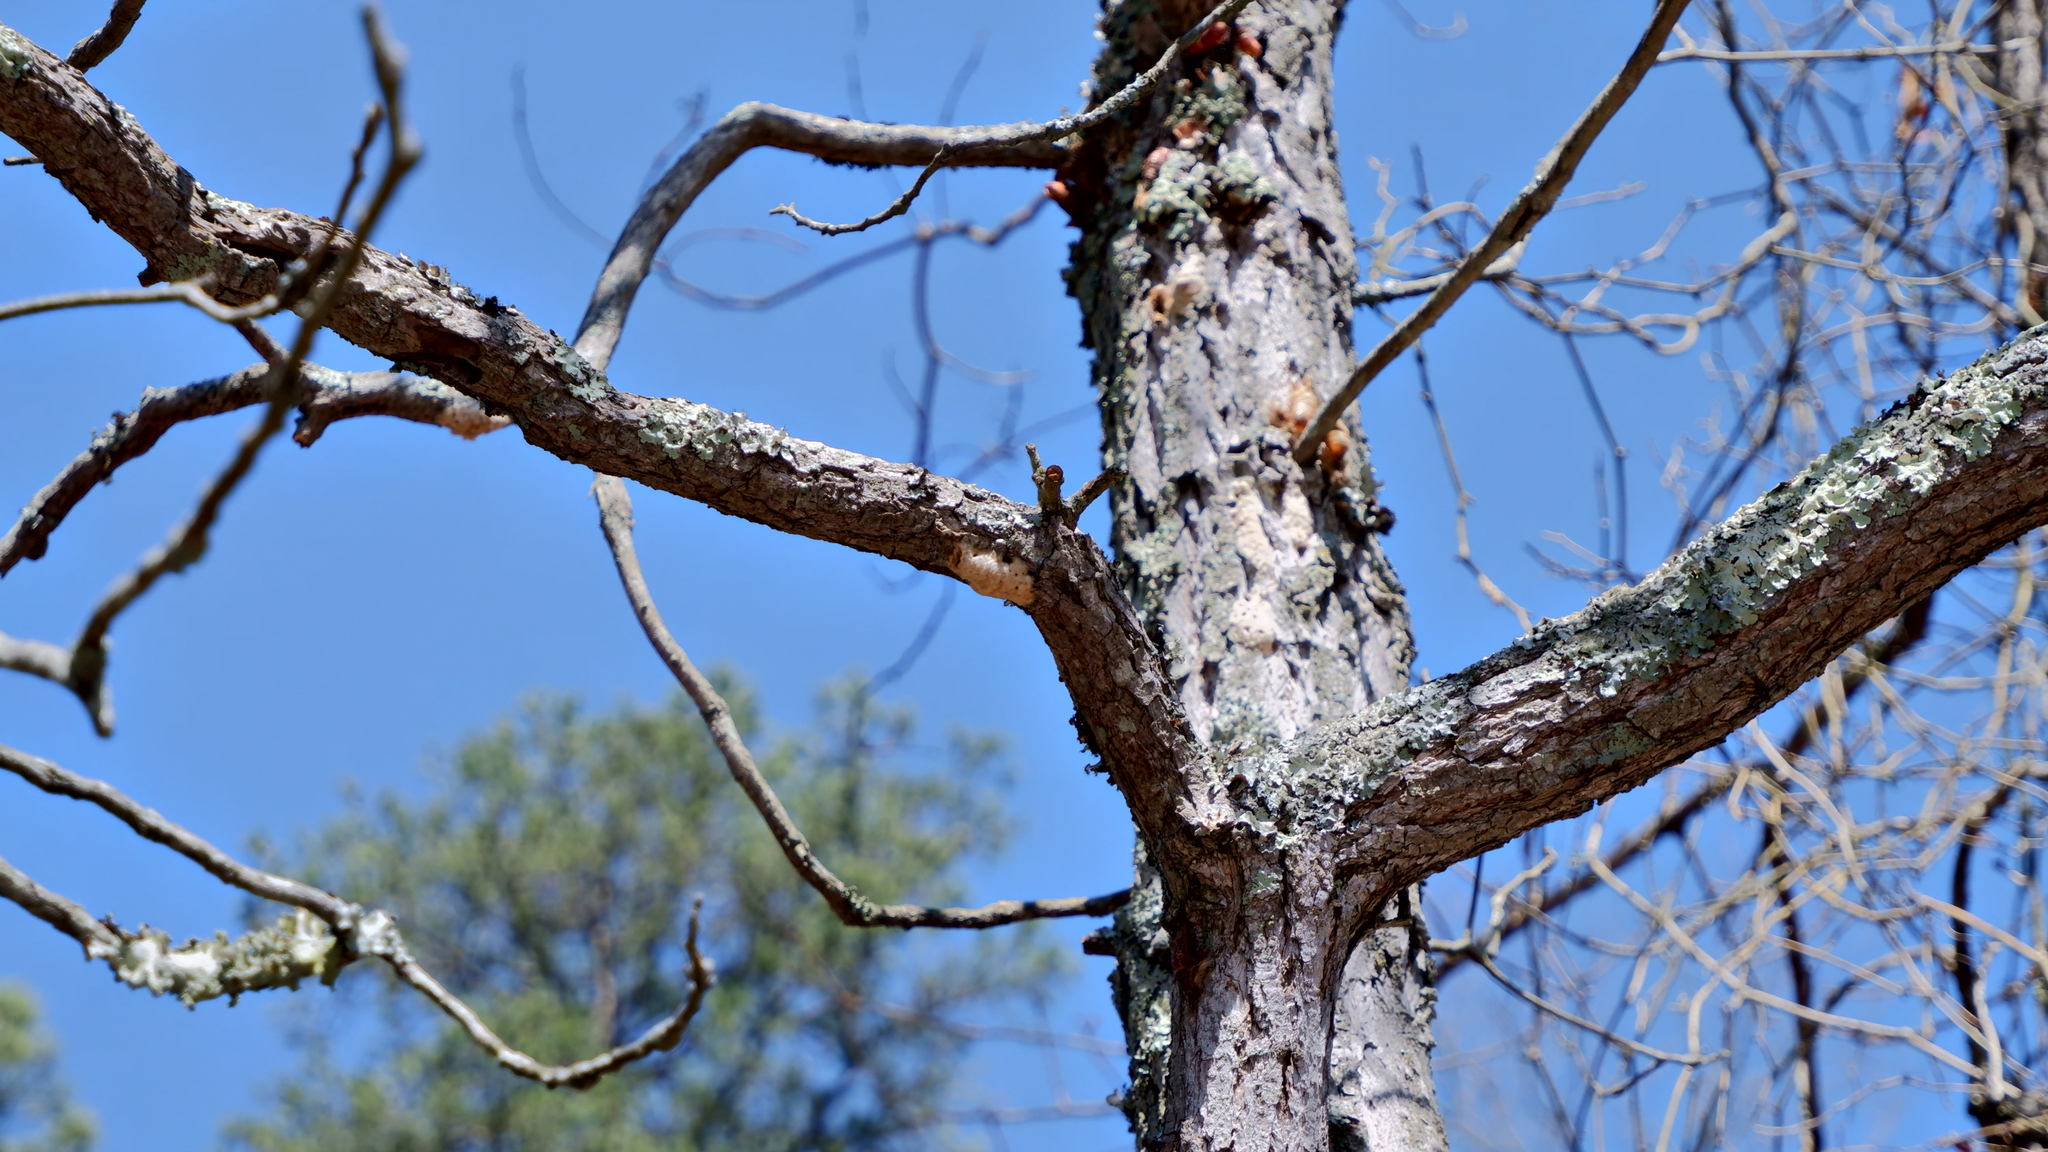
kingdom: Animalia
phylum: Arthropoda
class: Insecta
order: Lepidoptera
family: Erebidae
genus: Lymantria
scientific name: Lymantria dispar
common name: Gypsy moth
